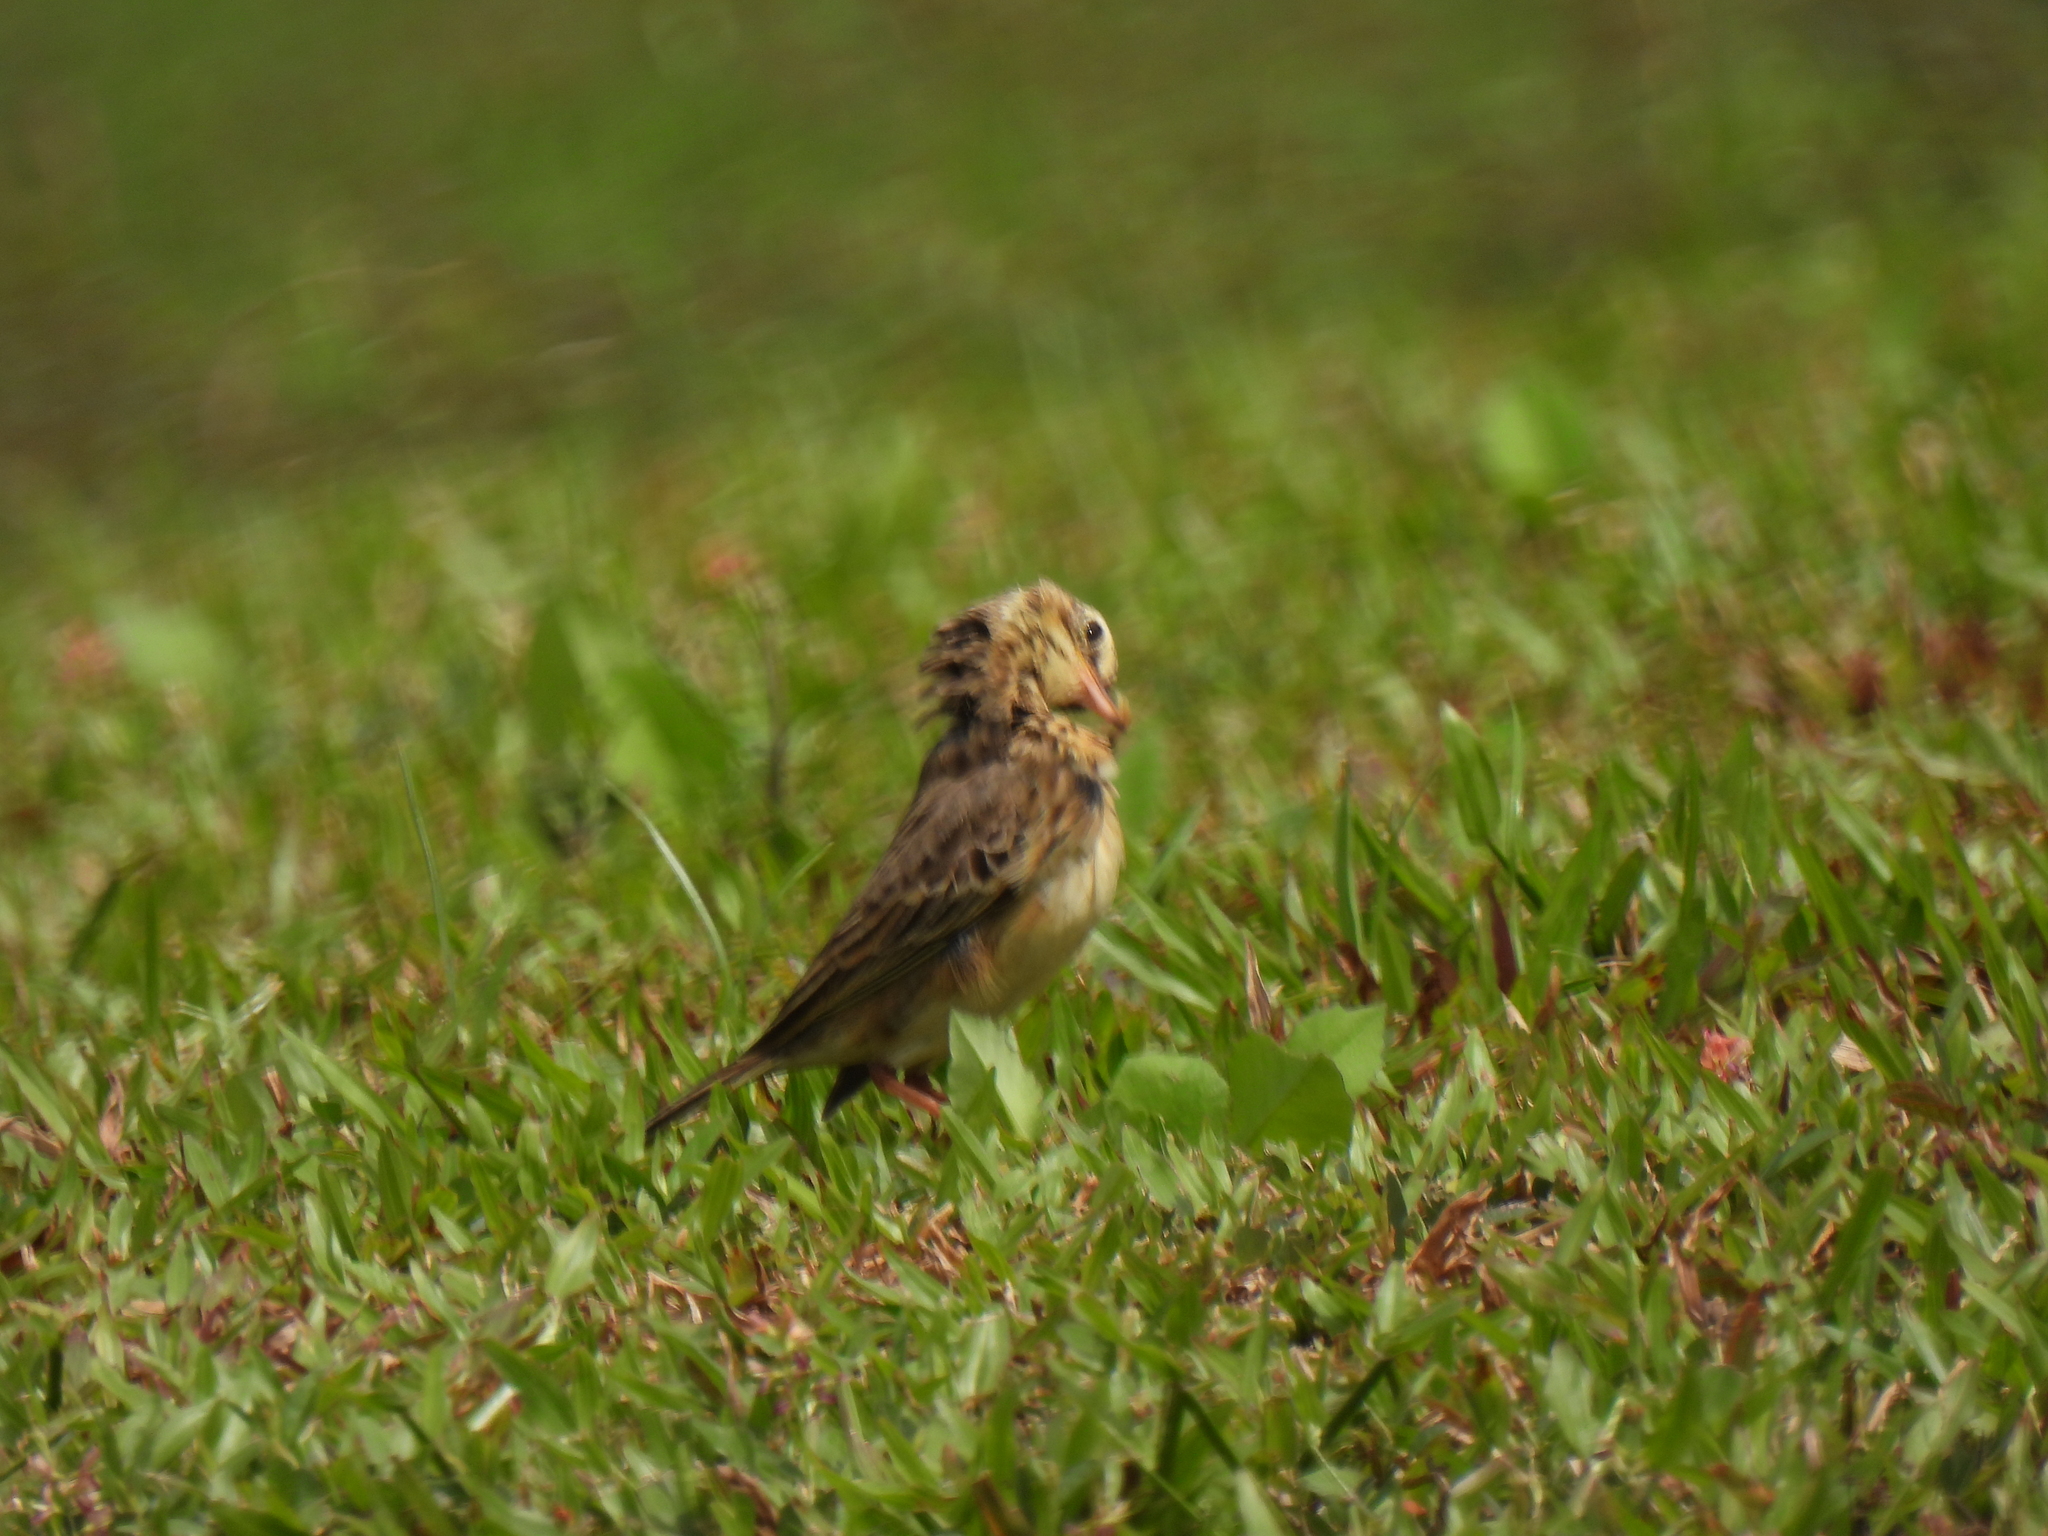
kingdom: Animalia
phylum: Chordata
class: Aves
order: Passeriformes
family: Motacillidae
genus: Anthus
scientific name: Anthus rufulus
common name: Paddyfield pipit
